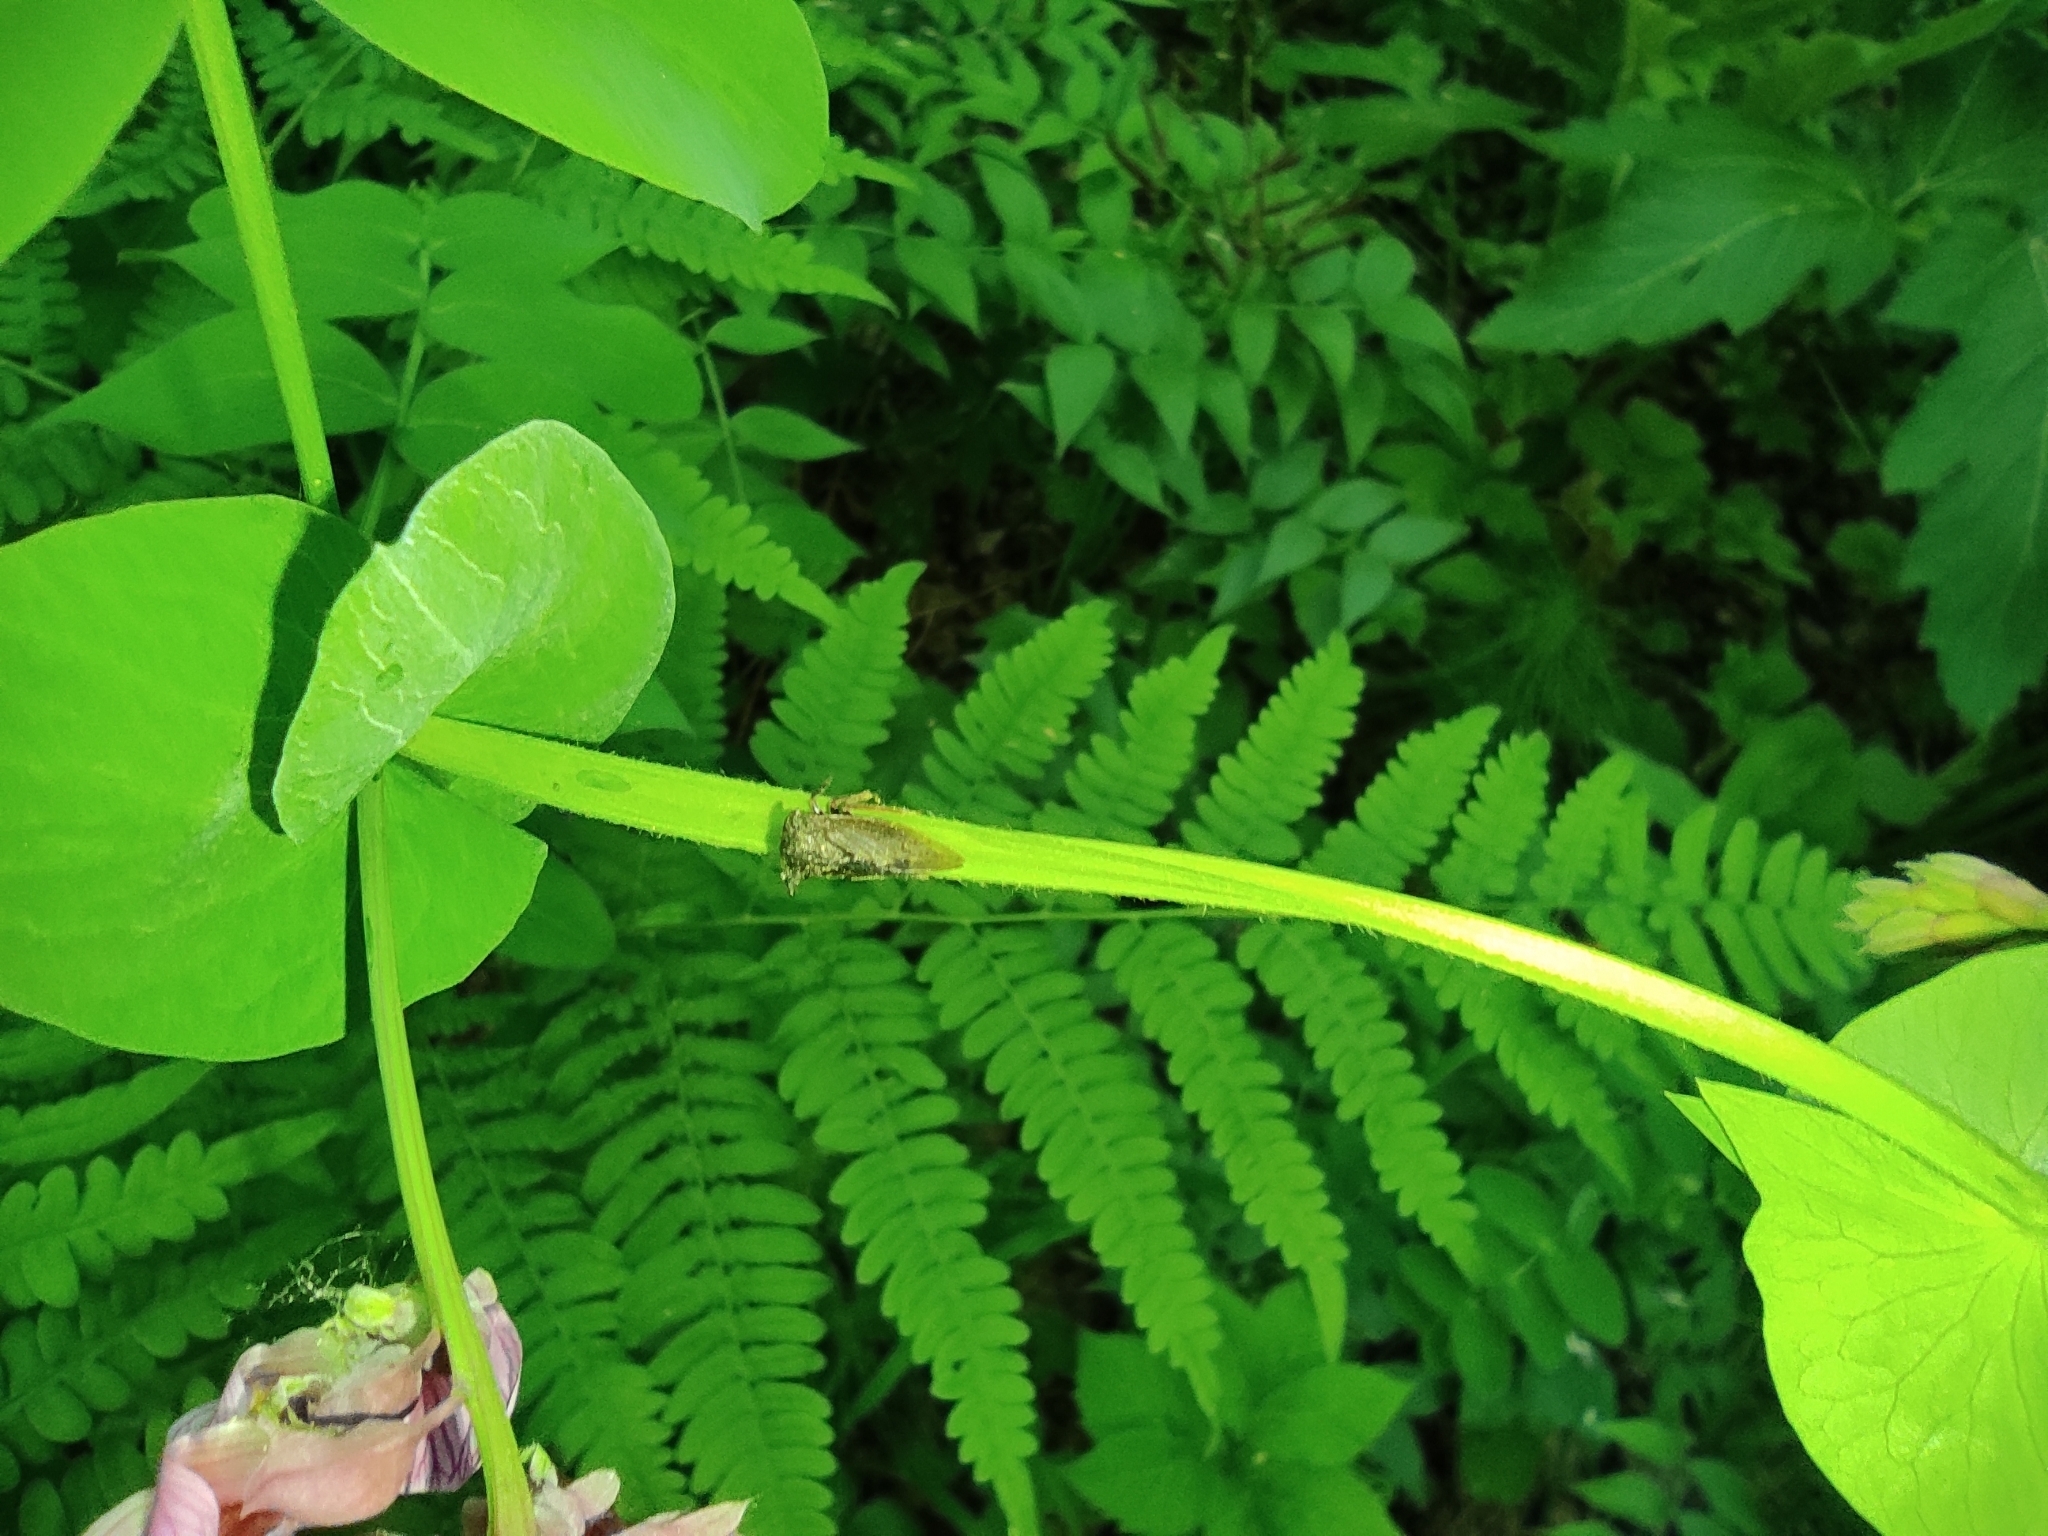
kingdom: Animalia
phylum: Arthropoda
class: Insecta
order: Hemiptera
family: Membracidae
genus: Centrotus
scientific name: Centrotus cornuta
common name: Treehopper
